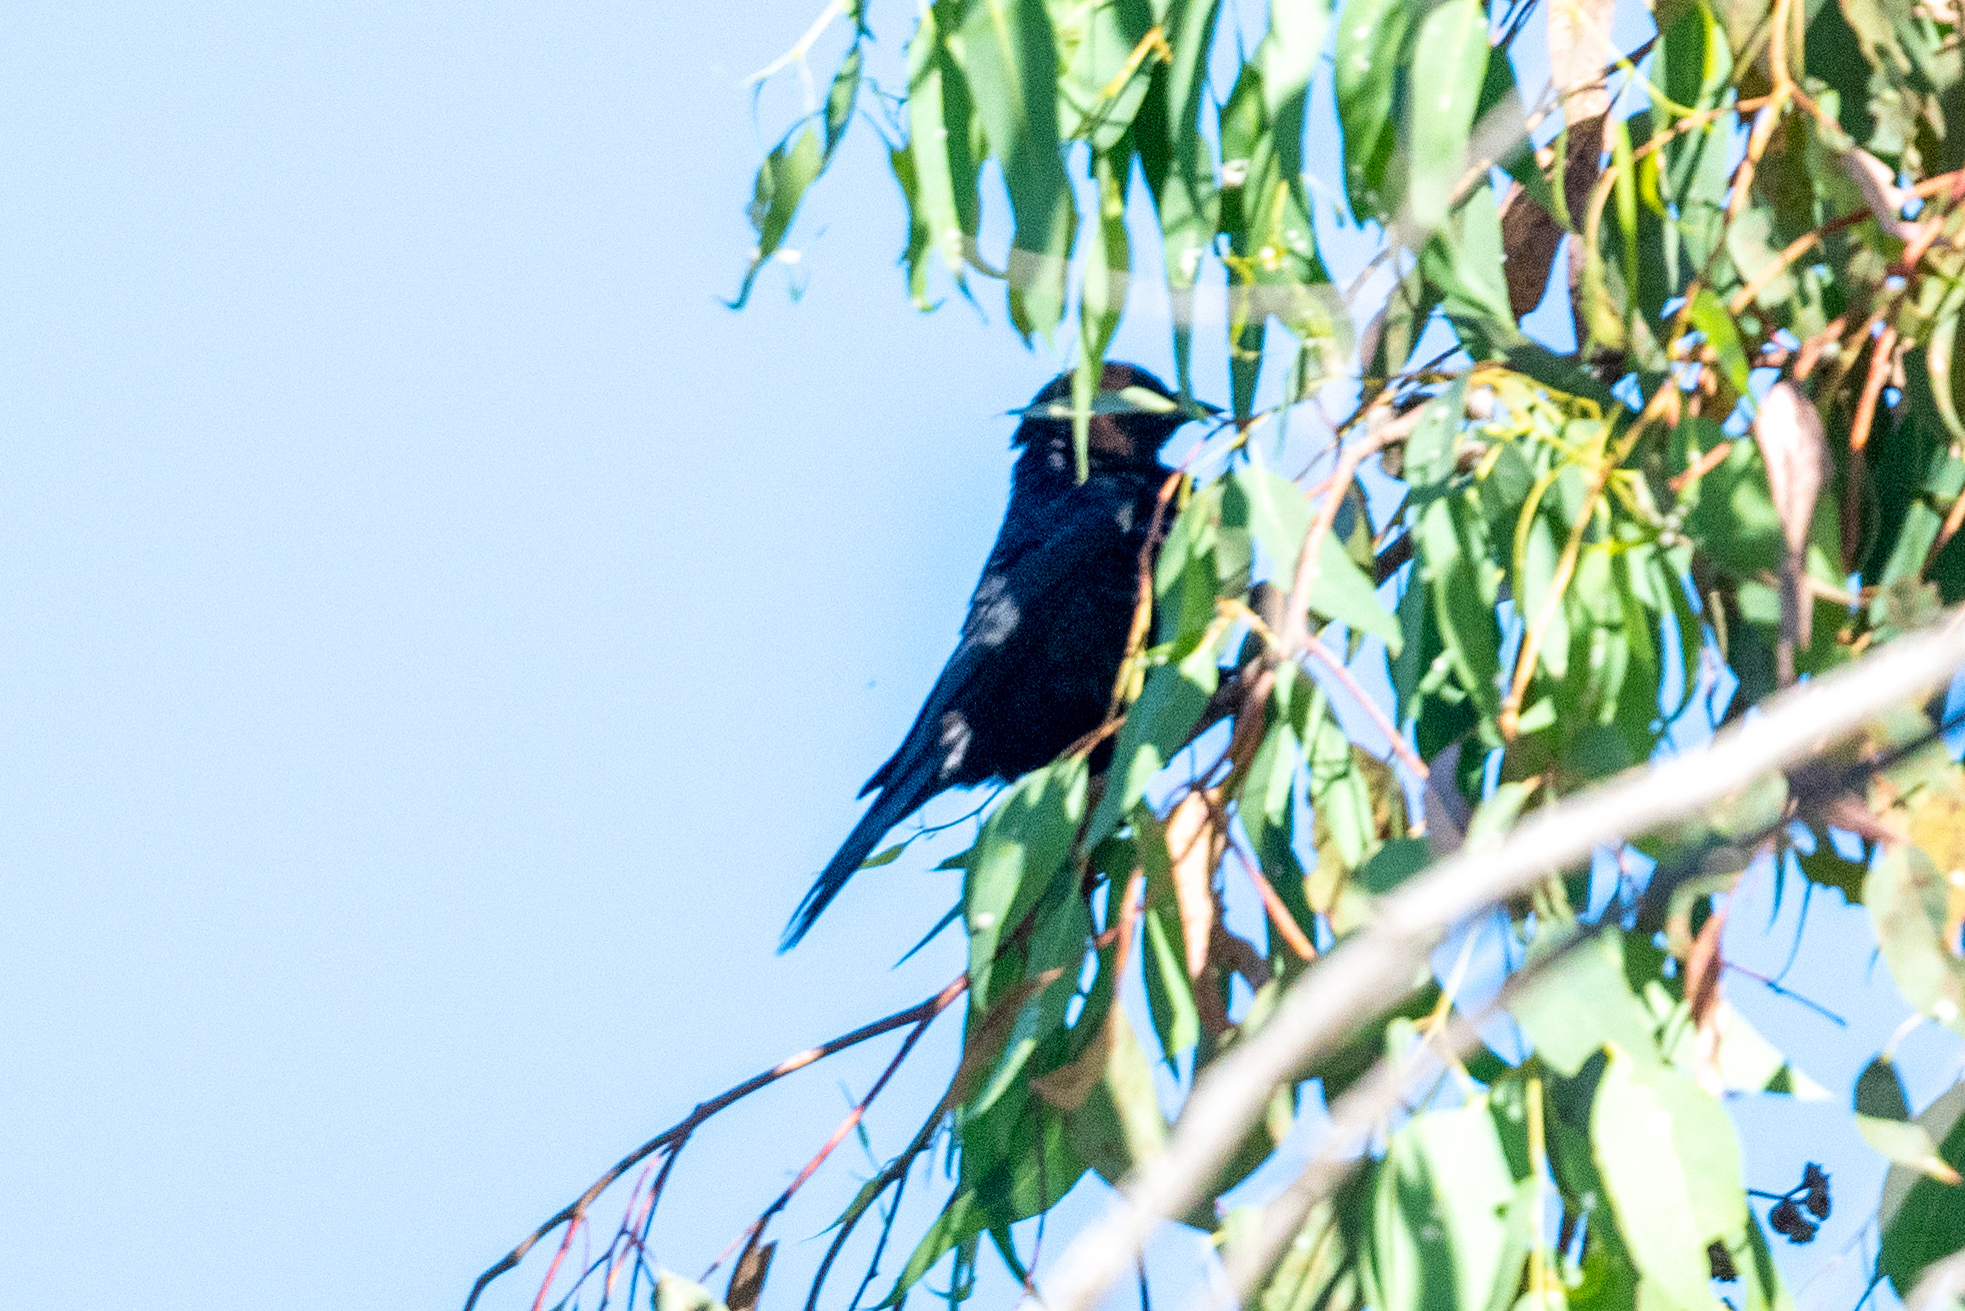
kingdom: Animalia
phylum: Chordata
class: Aves
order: Passeriformes
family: Icteridae
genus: Molothrus
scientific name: Molothrus ater
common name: Brown-headed cowbird
